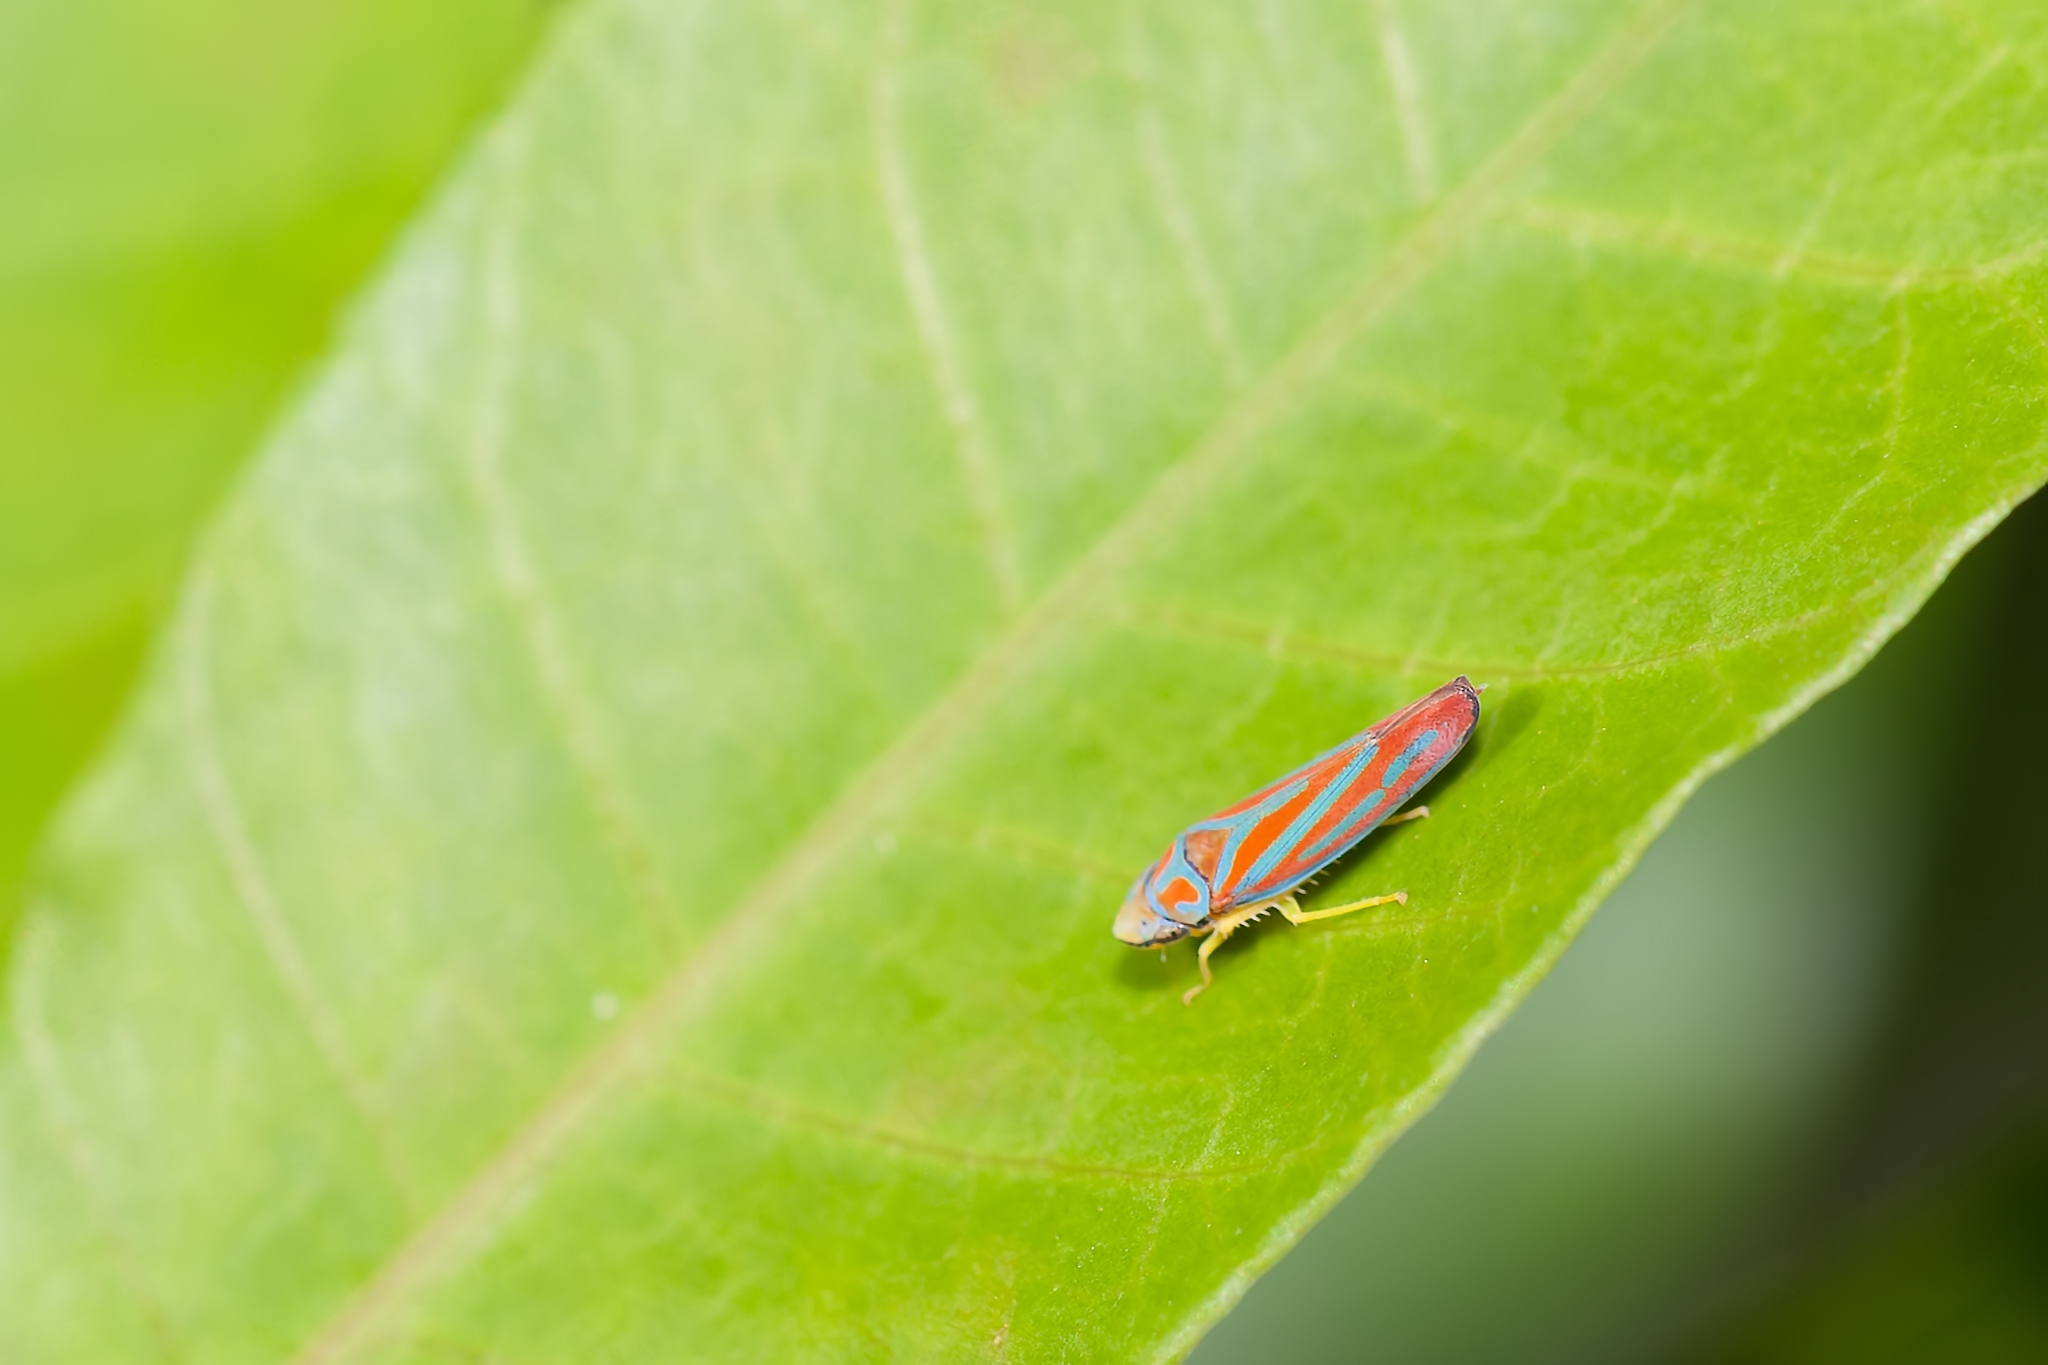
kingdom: Animalia
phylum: Arthropoda
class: Insecta
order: Hemiptera
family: Cicadellidae
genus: Graphocephala
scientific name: Graphocephala coccinea
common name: Candy-striped leafhopper
